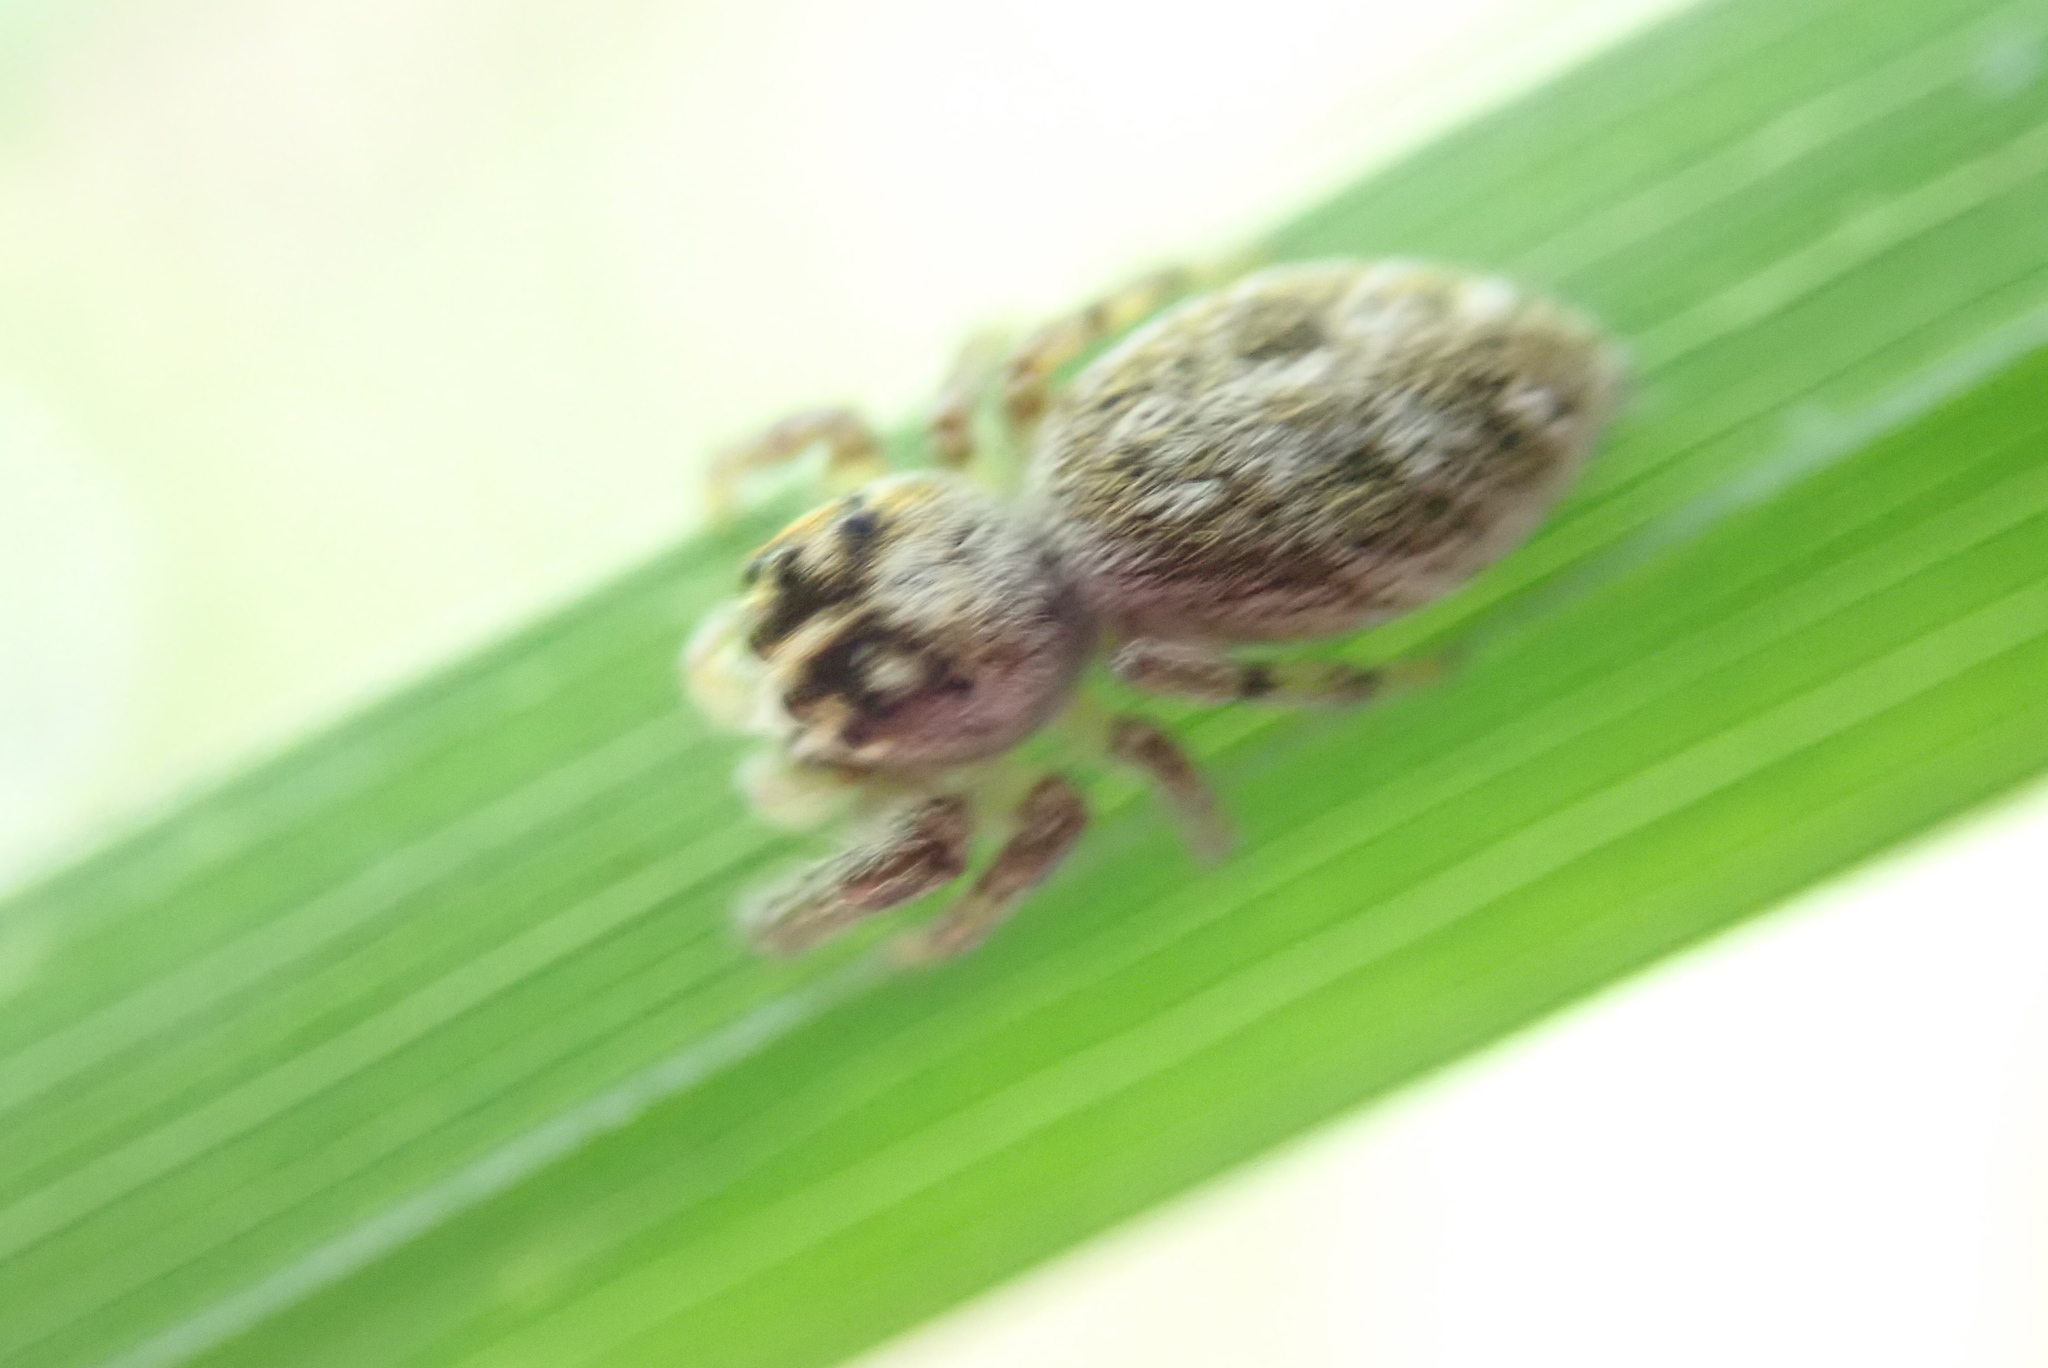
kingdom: Animalia
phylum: Arthropoda
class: Arachnida
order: Araneae
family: Salticidae
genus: Macaroeris
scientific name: Macaroeris nidicolens
